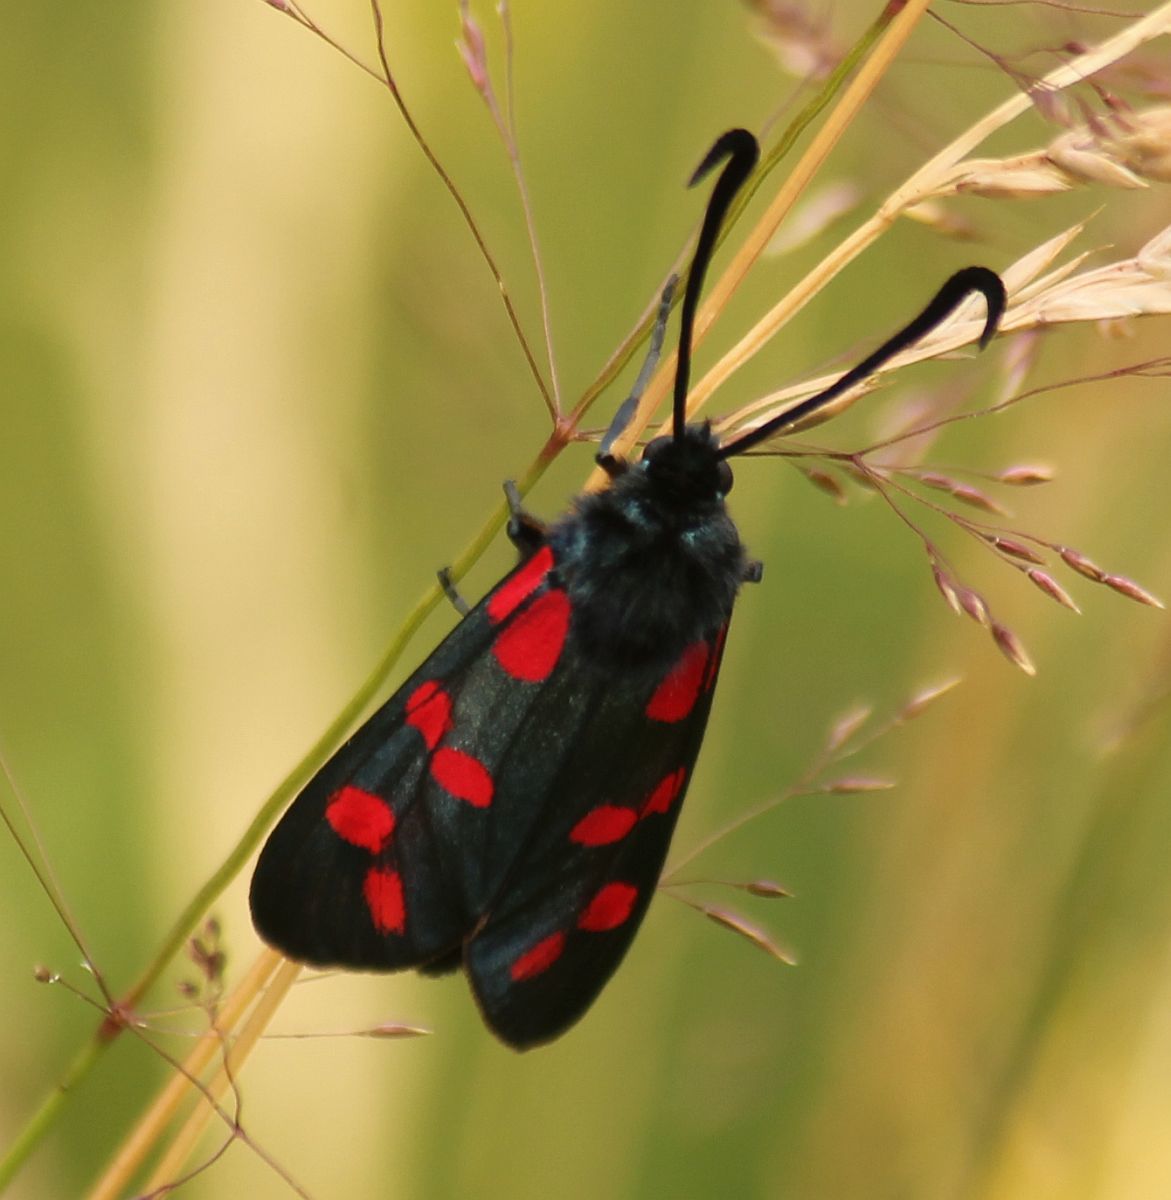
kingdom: Animalia
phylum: Arthropoda
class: Insecta
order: Lepidoptera
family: Zygaenidae
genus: Zygaena
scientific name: Zygaena filipendulae
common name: Six-spot burnet
